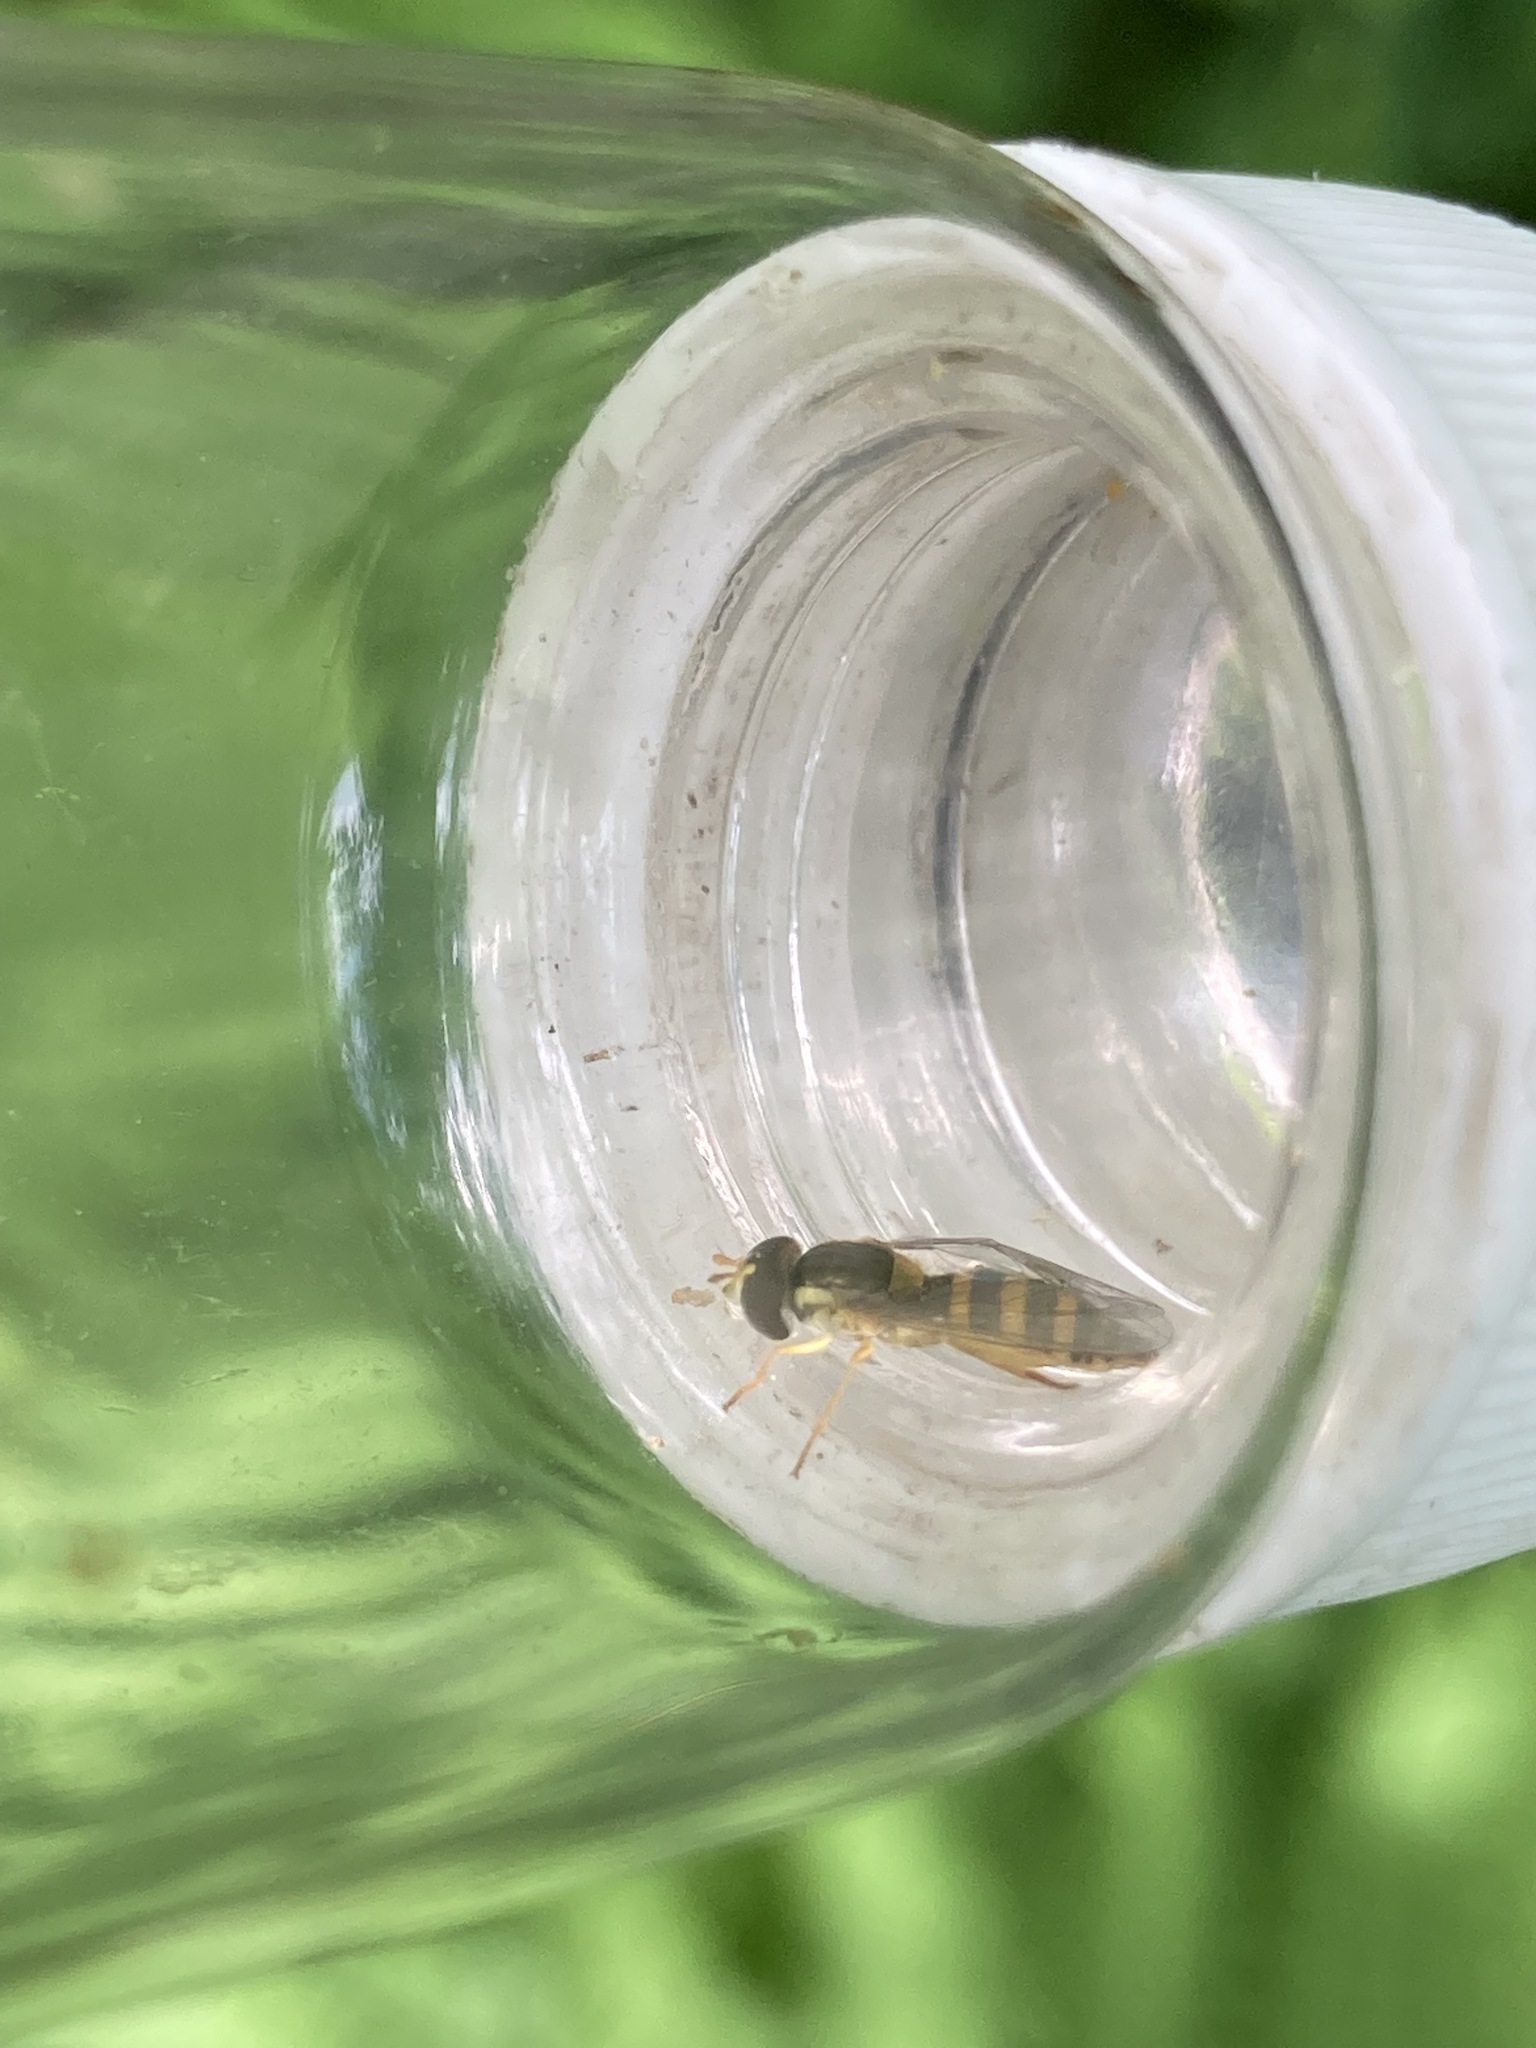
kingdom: Animalia
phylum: Arthropoda
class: Insecta
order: Diptera
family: Syrphidae
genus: Sphaerophoria
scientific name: Sphaerophoria
